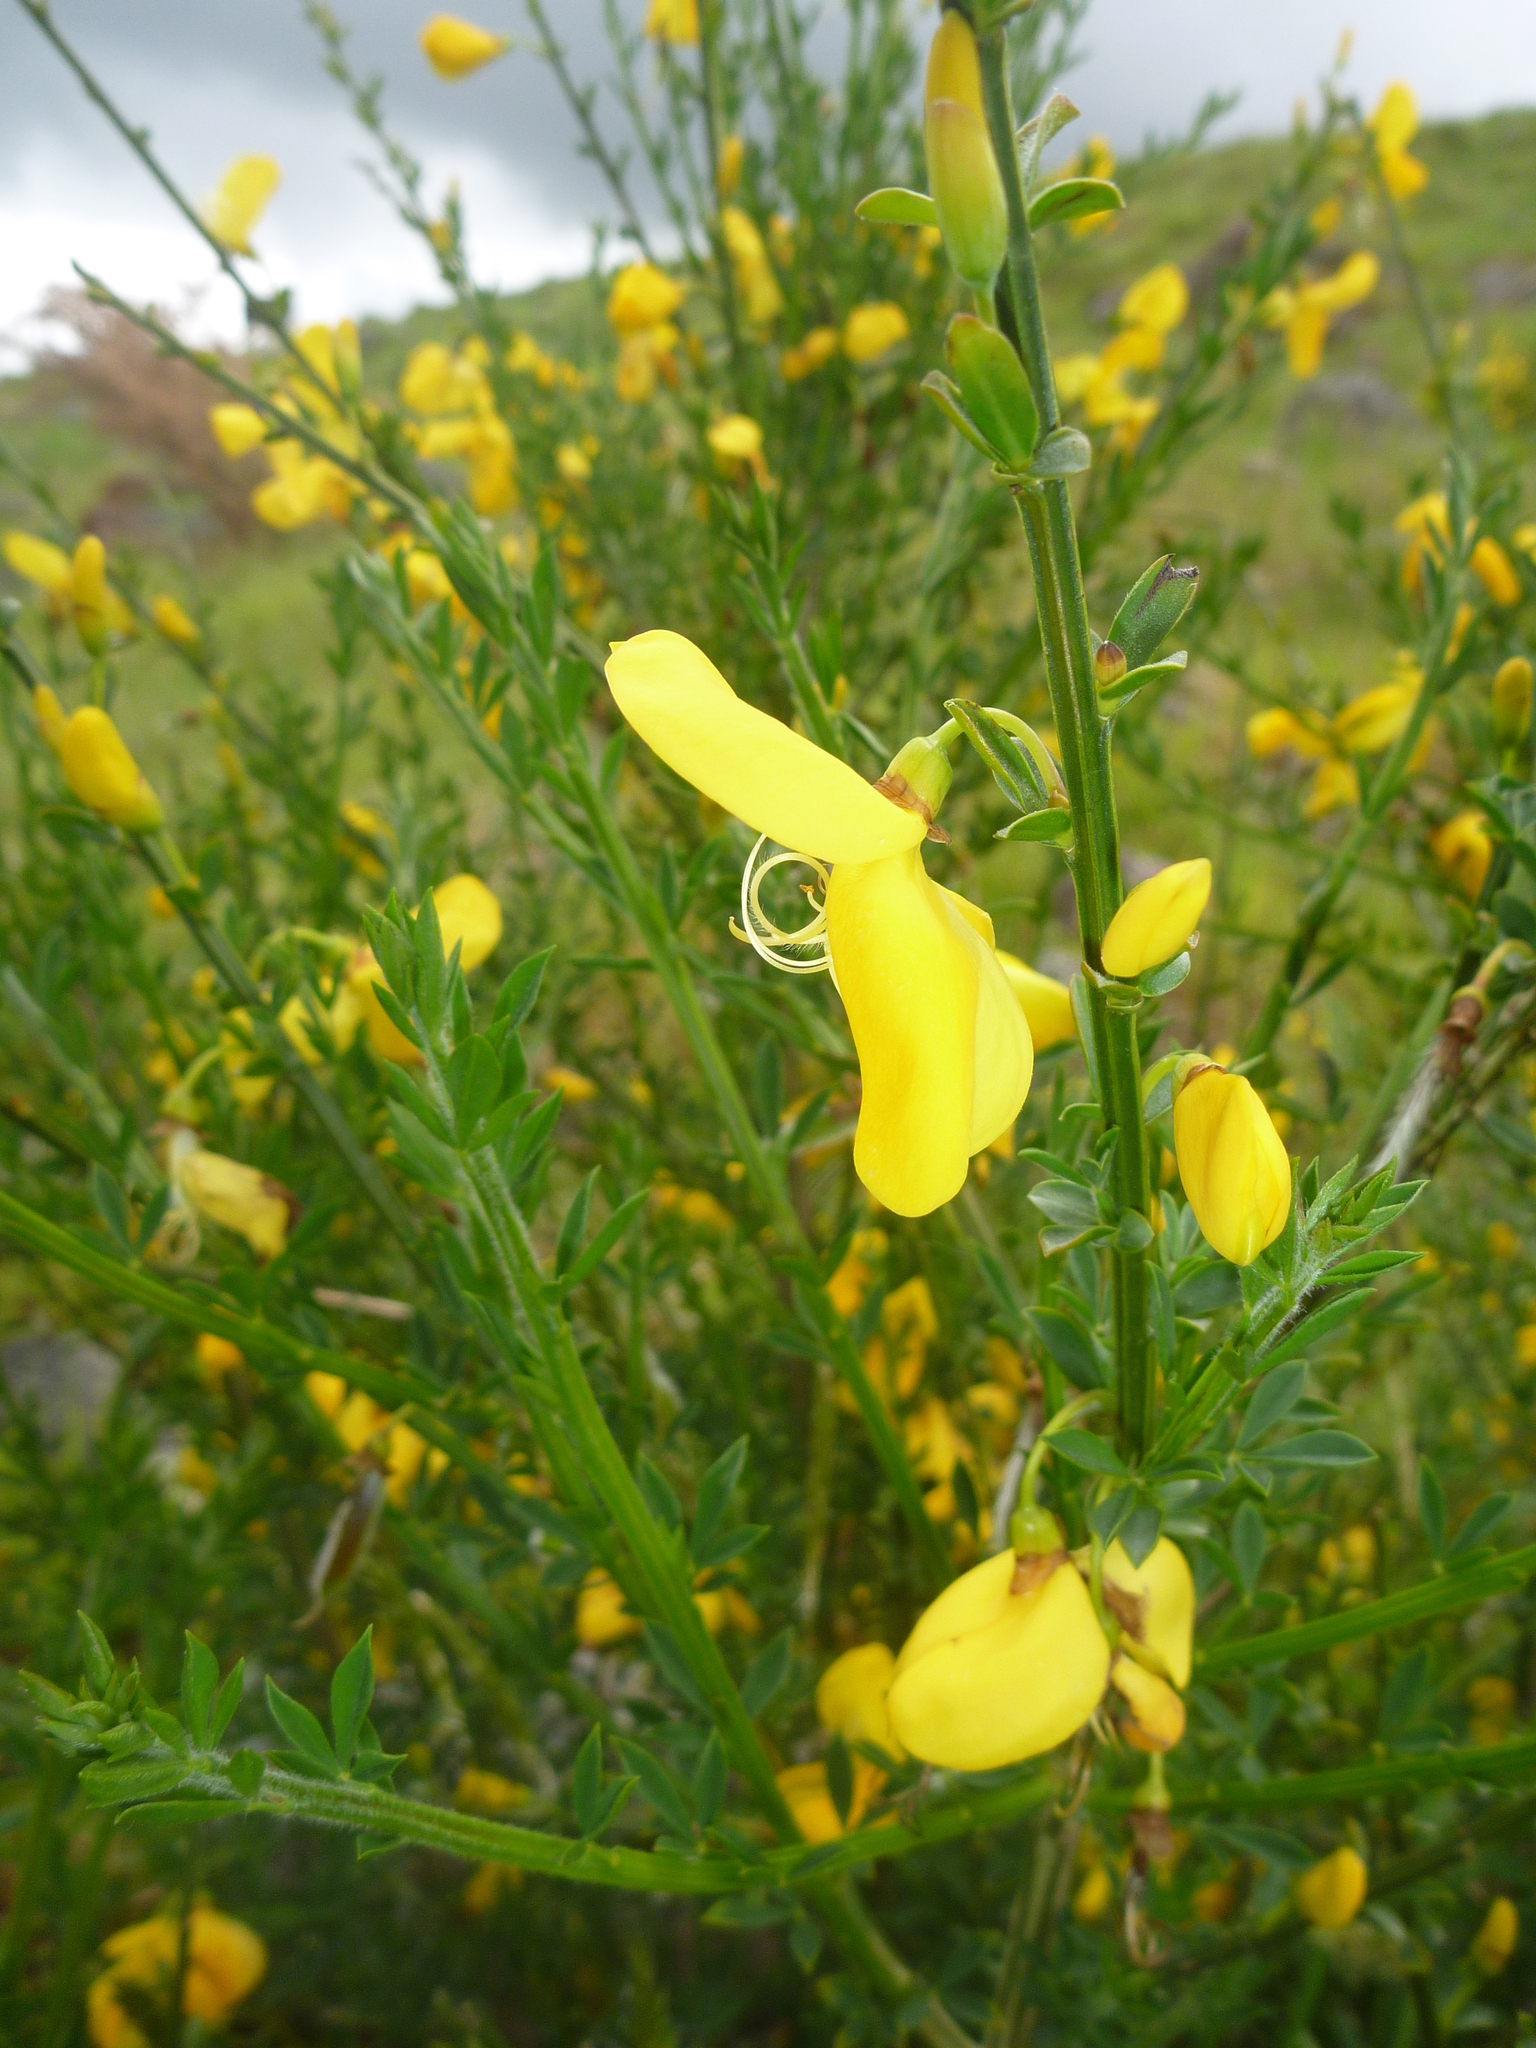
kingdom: Plantae
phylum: Tracheophyta
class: Magnoliopsida
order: Fabales
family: Fabaceae
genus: Cytisus
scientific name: Cytisus scoparius
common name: Scotch broom
